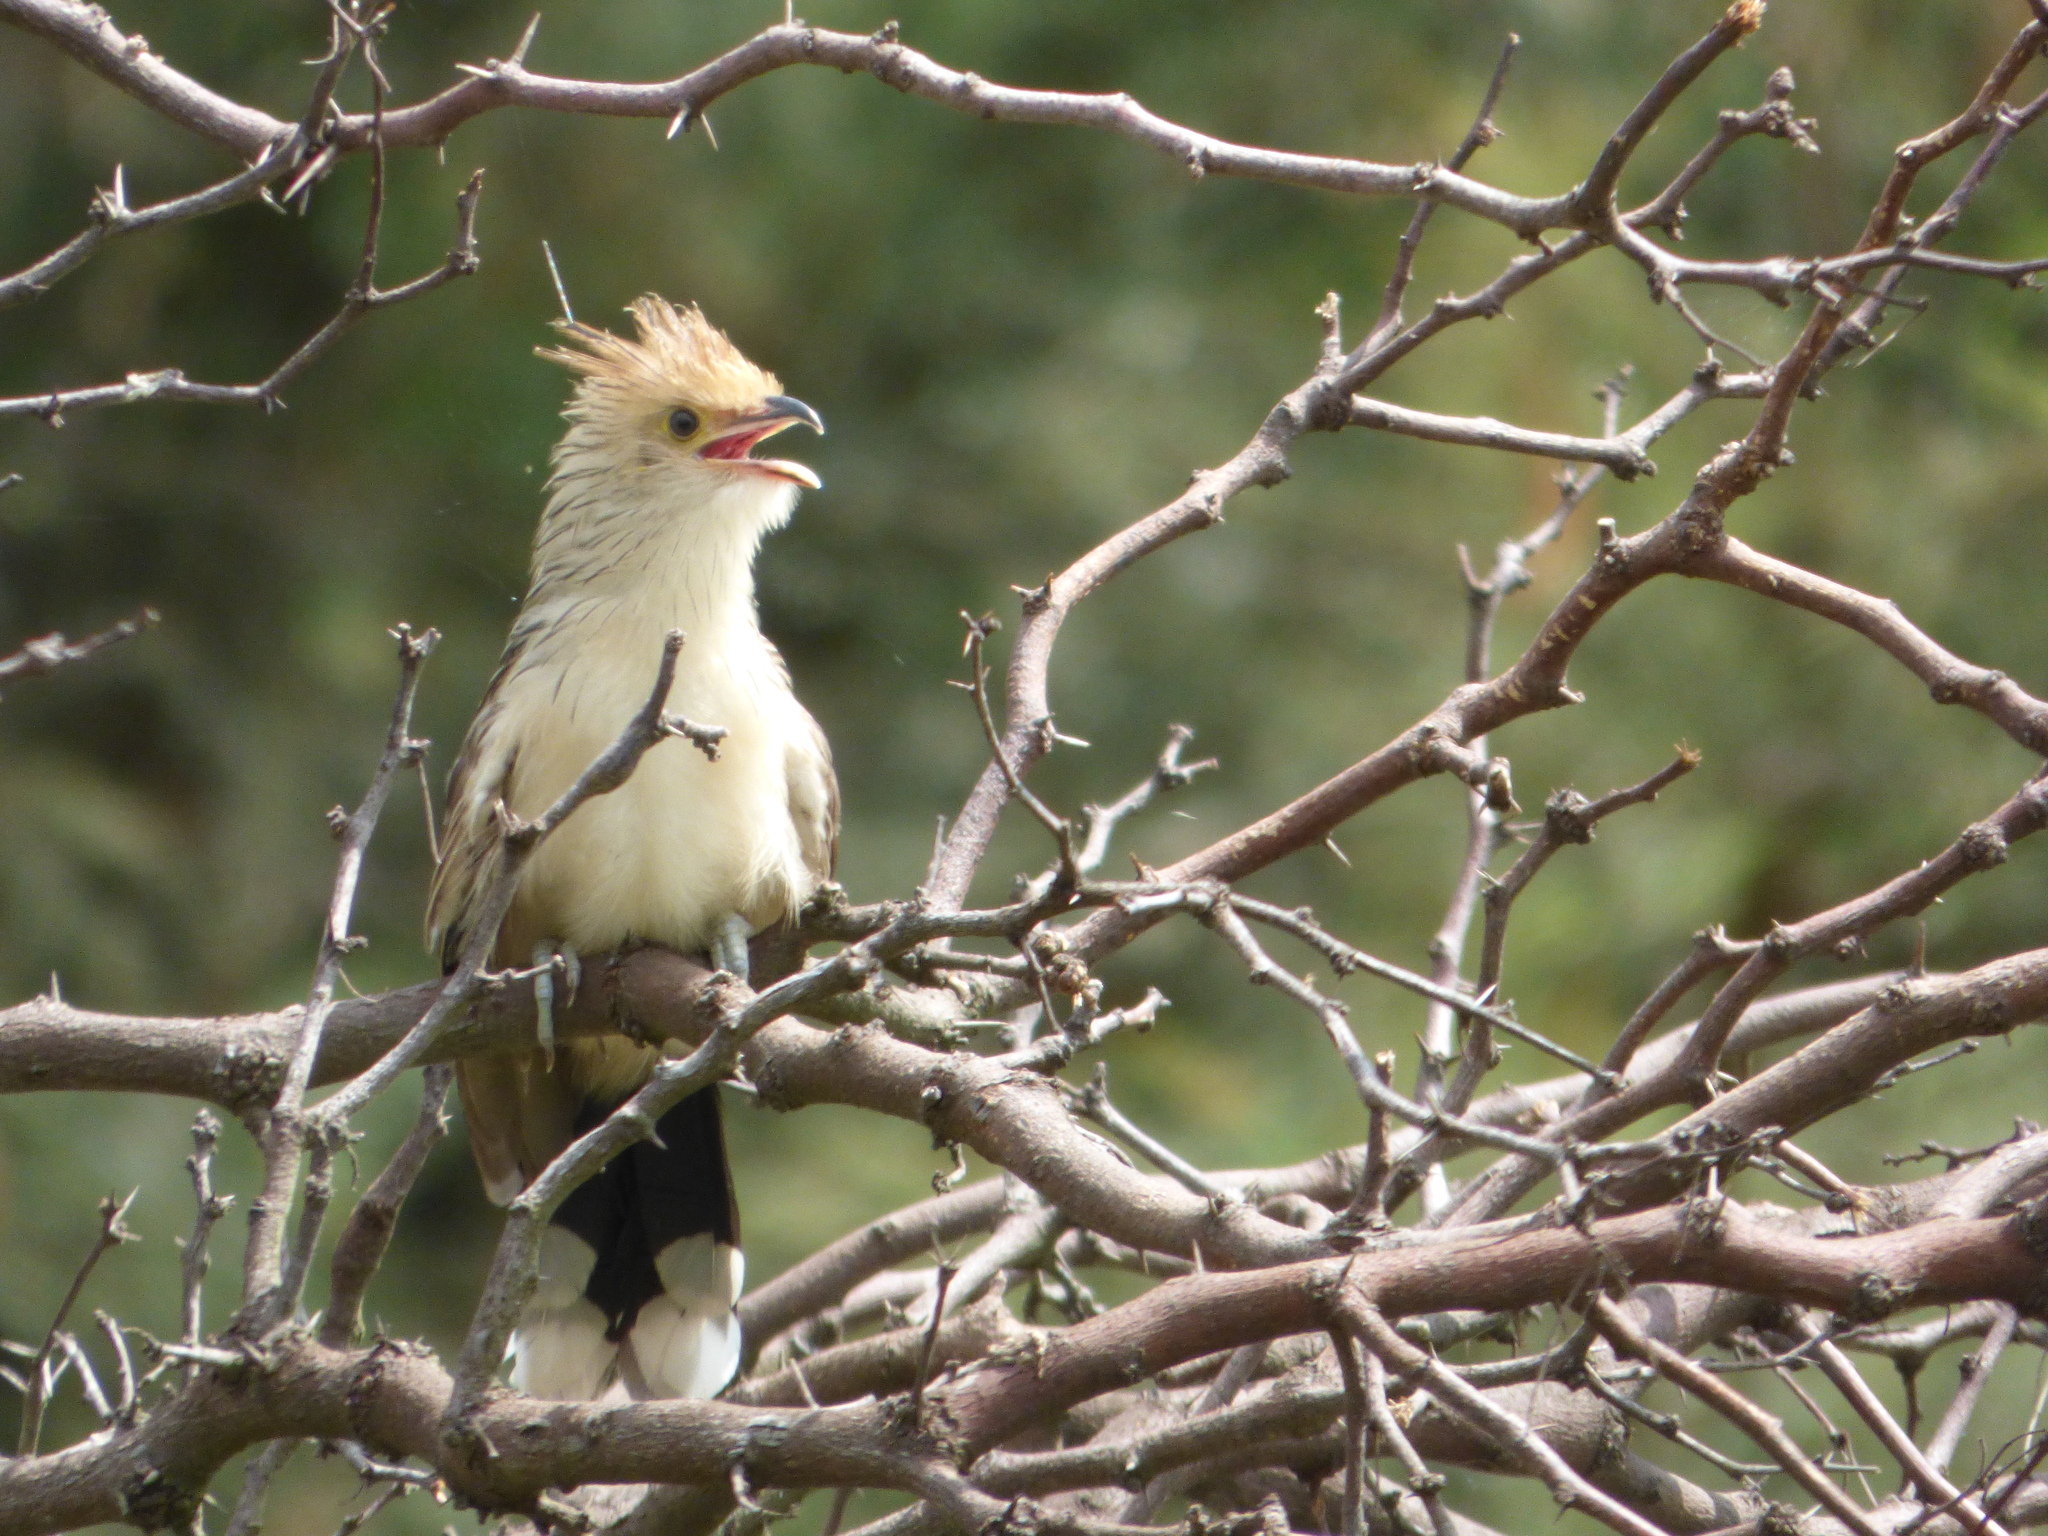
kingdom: Animalia
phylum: Chordata
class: Aves
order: Cuculiformes
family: Cuculidae
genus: Guira
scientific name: Guira guira
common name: Guira cuckoo
